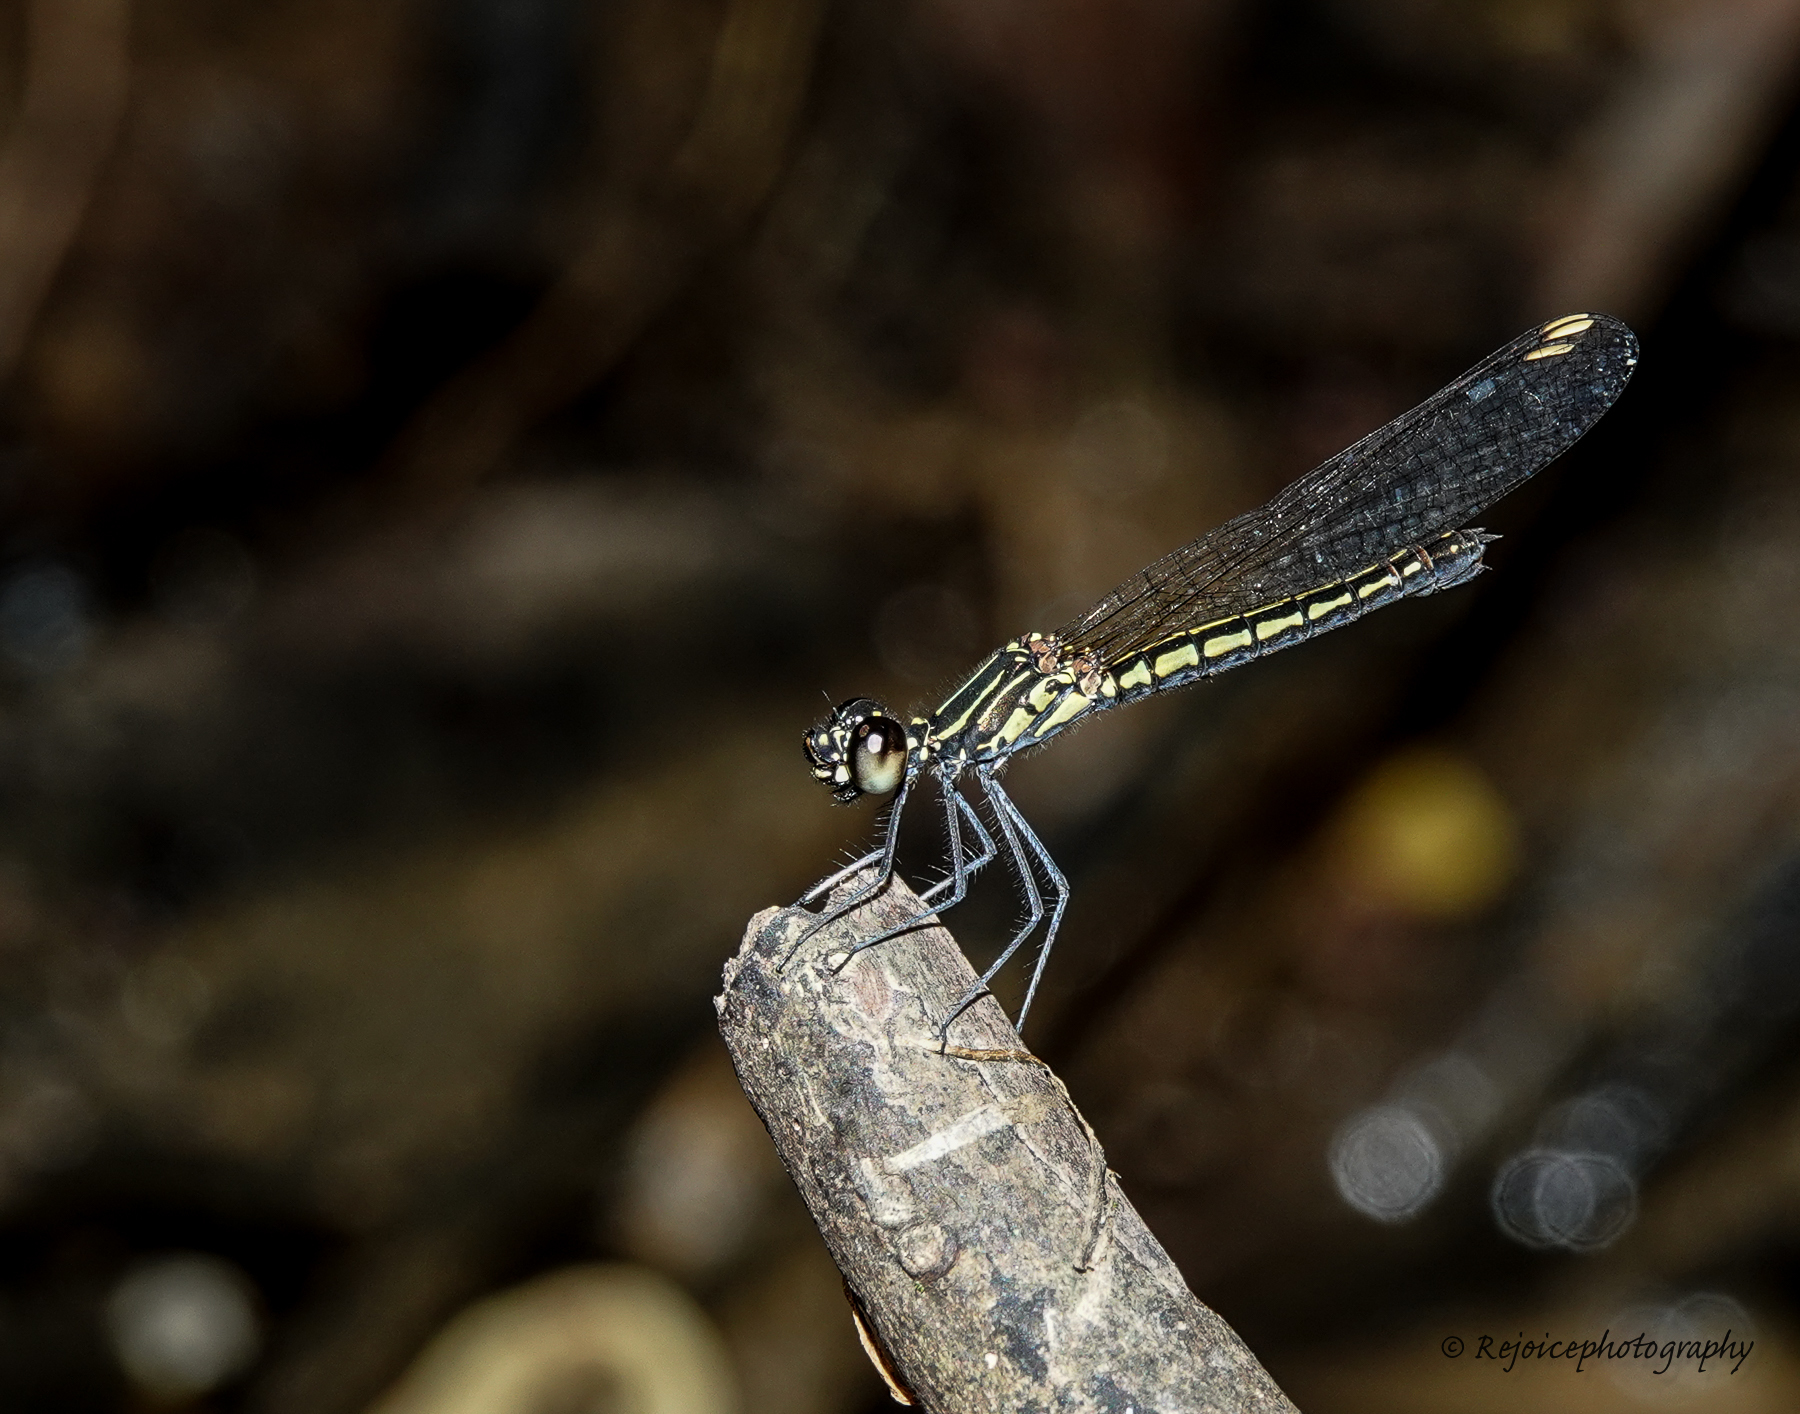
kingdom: Animalia
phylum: Arthropoda
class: Insecta
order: Odonata
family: Chlorocyphidae
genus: Libellago
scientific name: Libellago lineata
